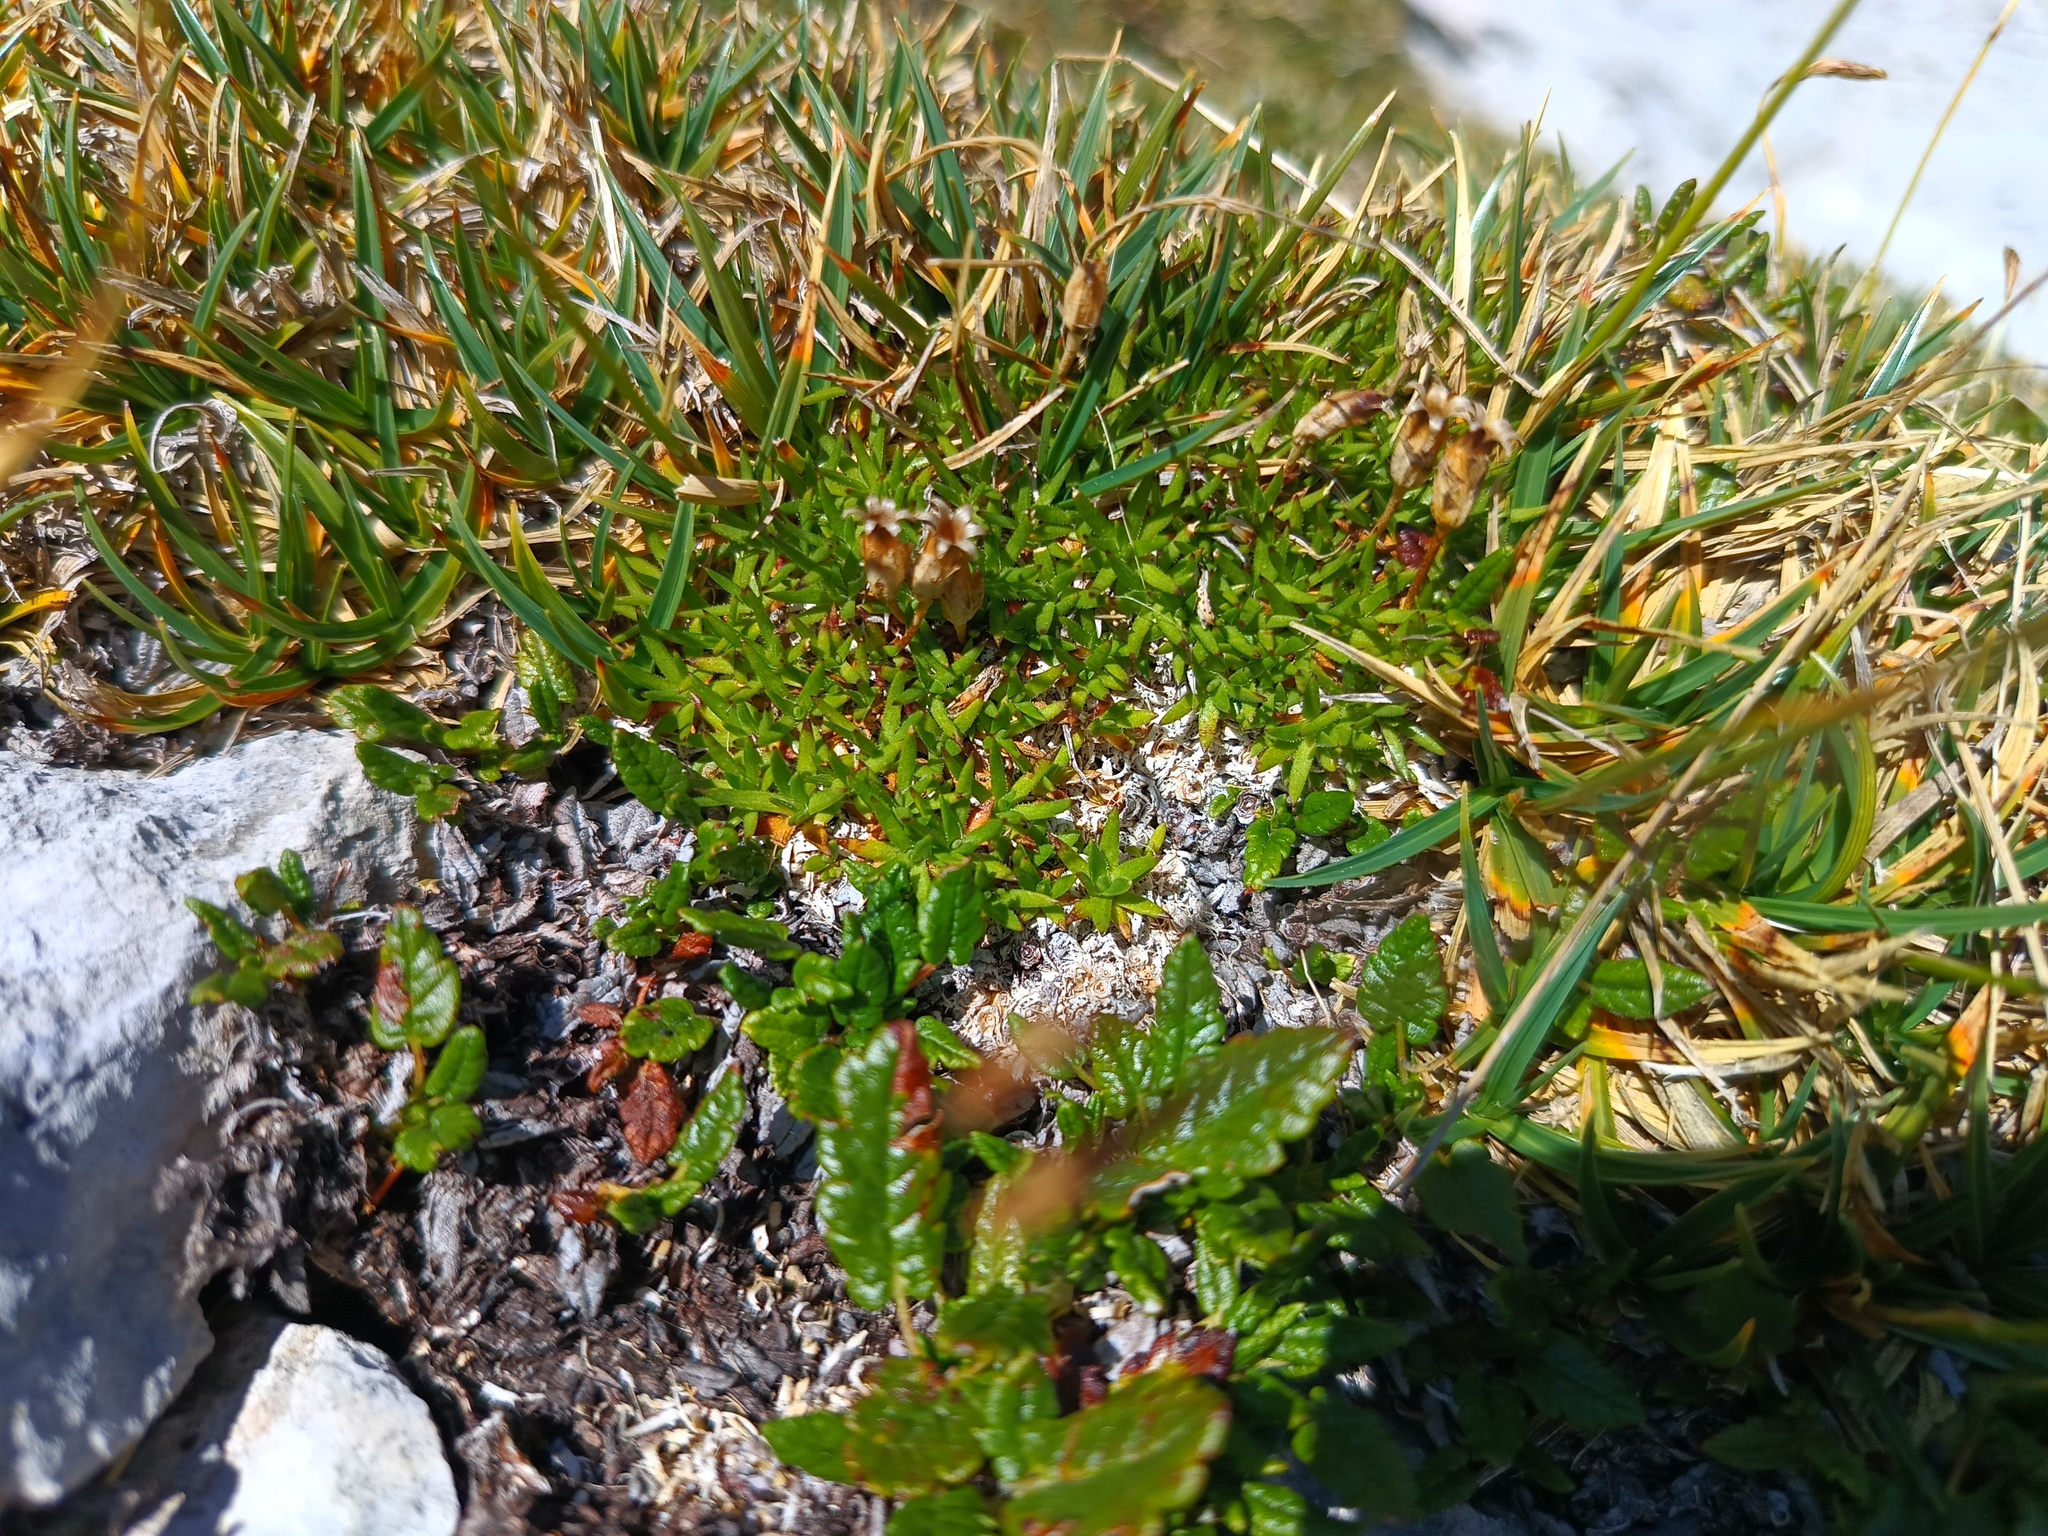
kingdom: Plantae
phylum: Tracheophyta
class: Magnoliopsida
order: Caryophyllales
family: Caryophyllaceae
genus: Silene
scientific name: Silene acaulis
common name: Moss campion
